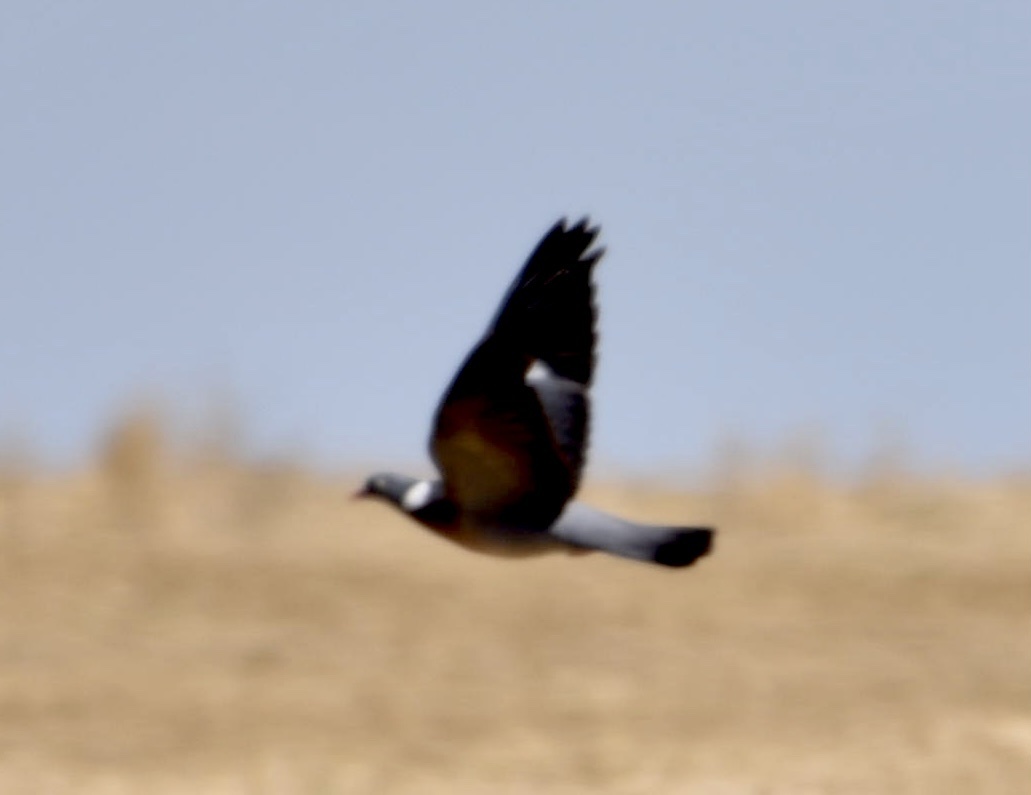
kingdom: Animalia
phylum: Chordata
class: Aves
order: Columbiformes
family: Columbidae
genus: Columba
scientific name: Columba palumbus
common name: Common wood pigeon
